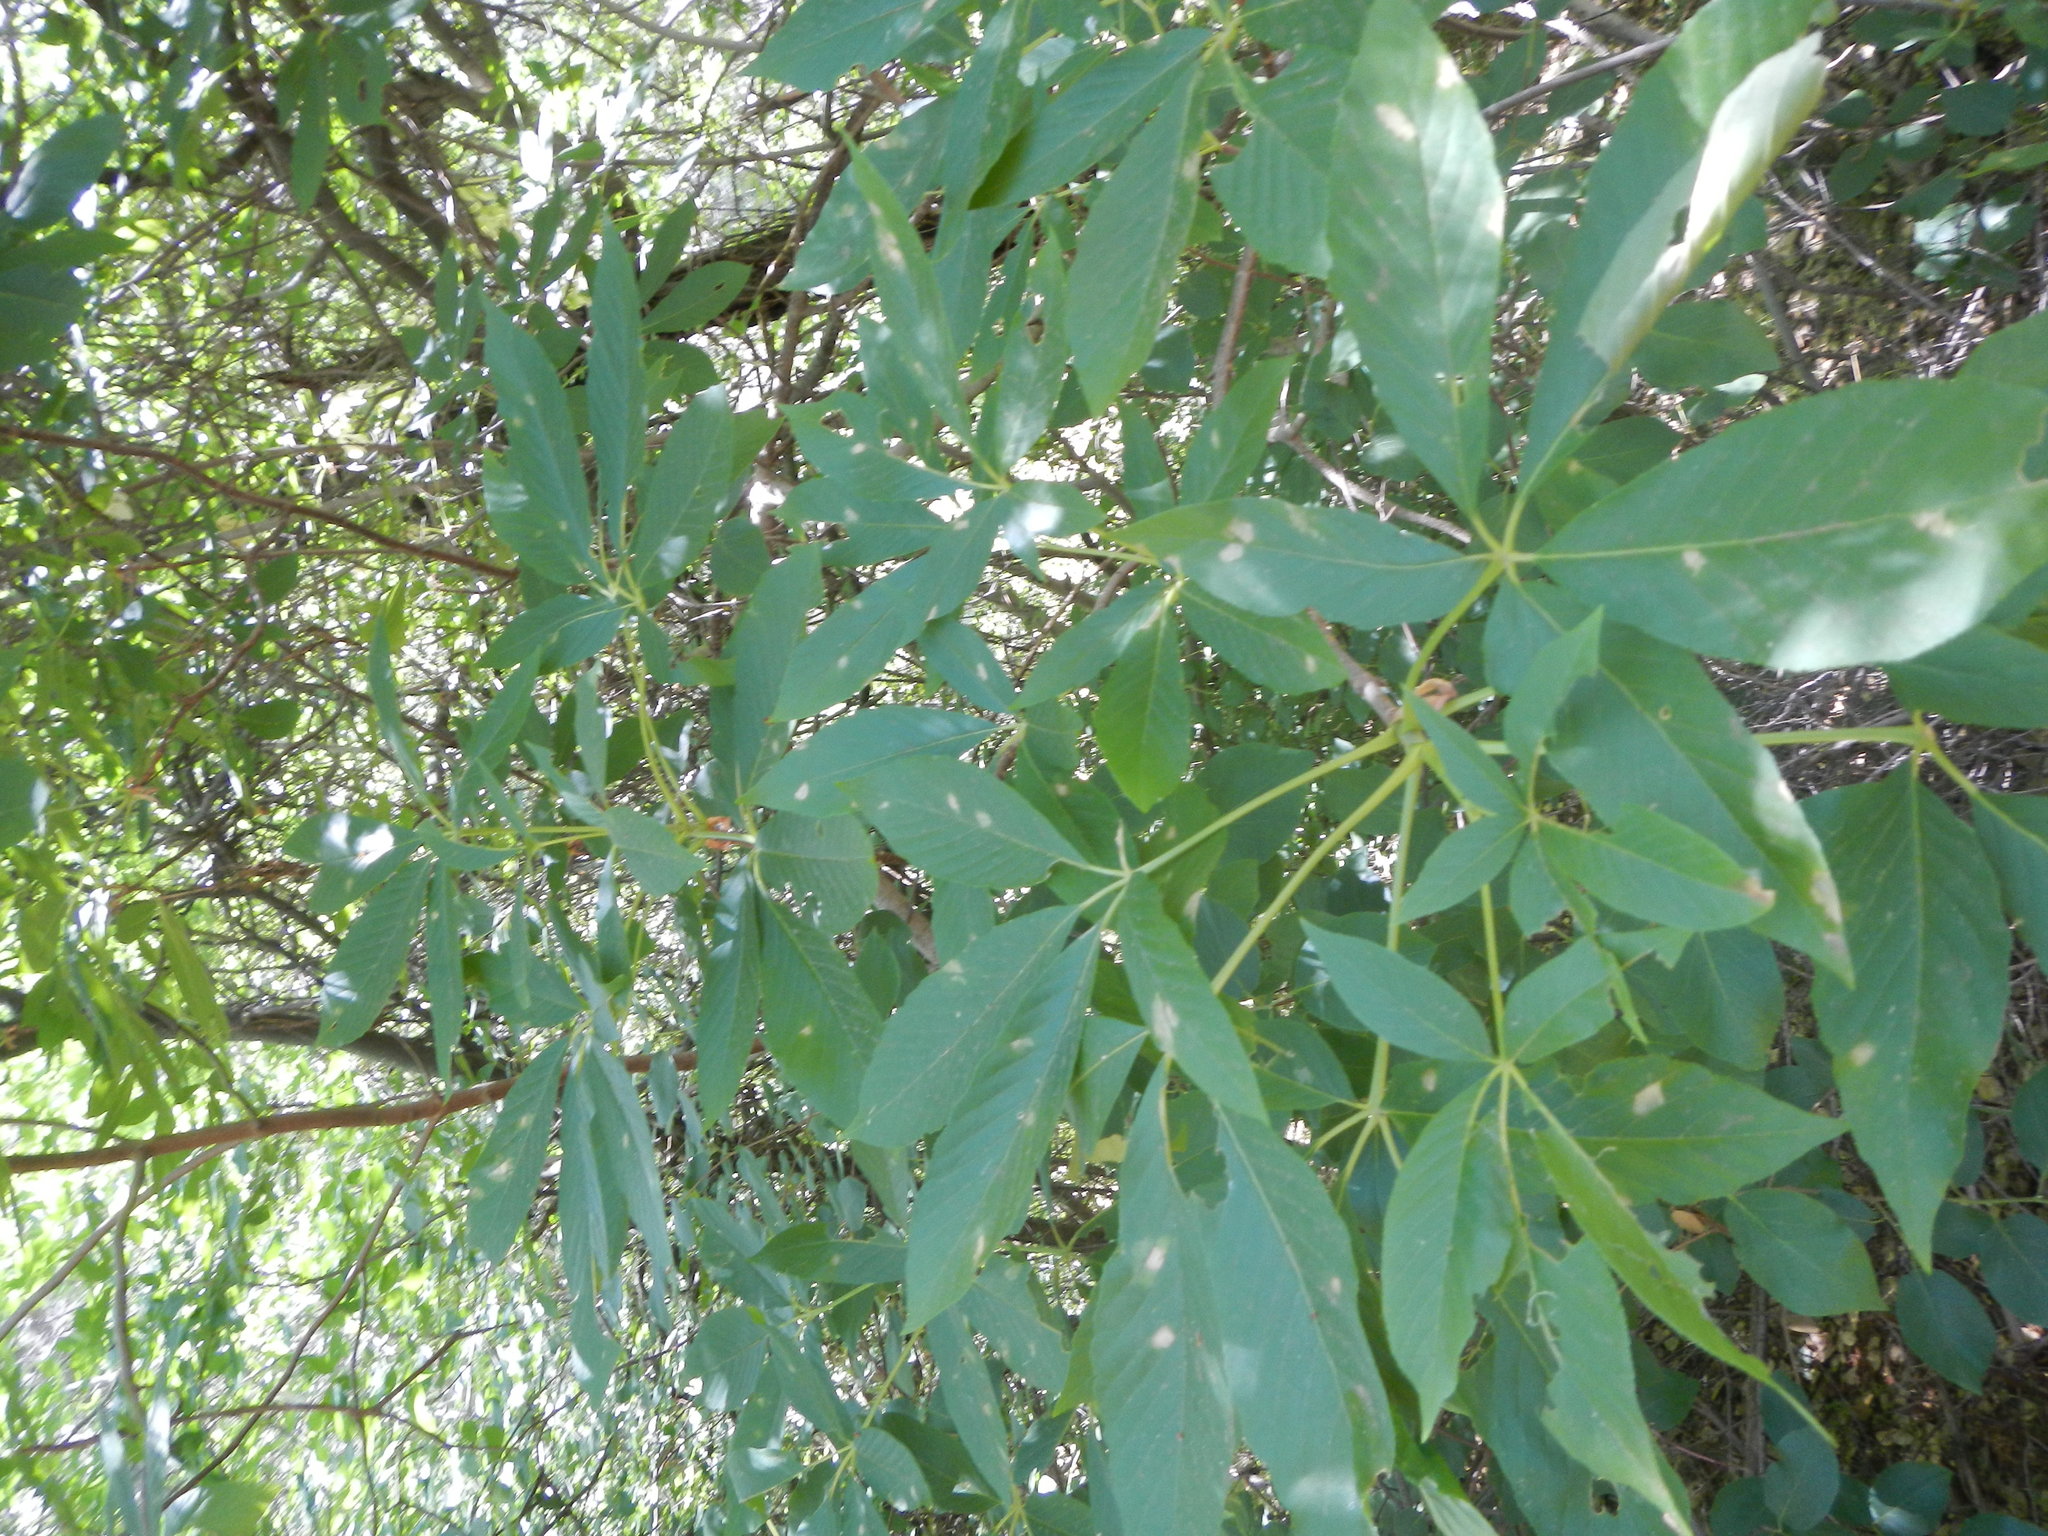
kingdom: Plantae
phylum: Tracheophyta
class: Magnoliopsida
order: Sapindales
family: Sapindaceae
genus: Aesculus
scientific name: Aesculus californica
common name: California buckeye
